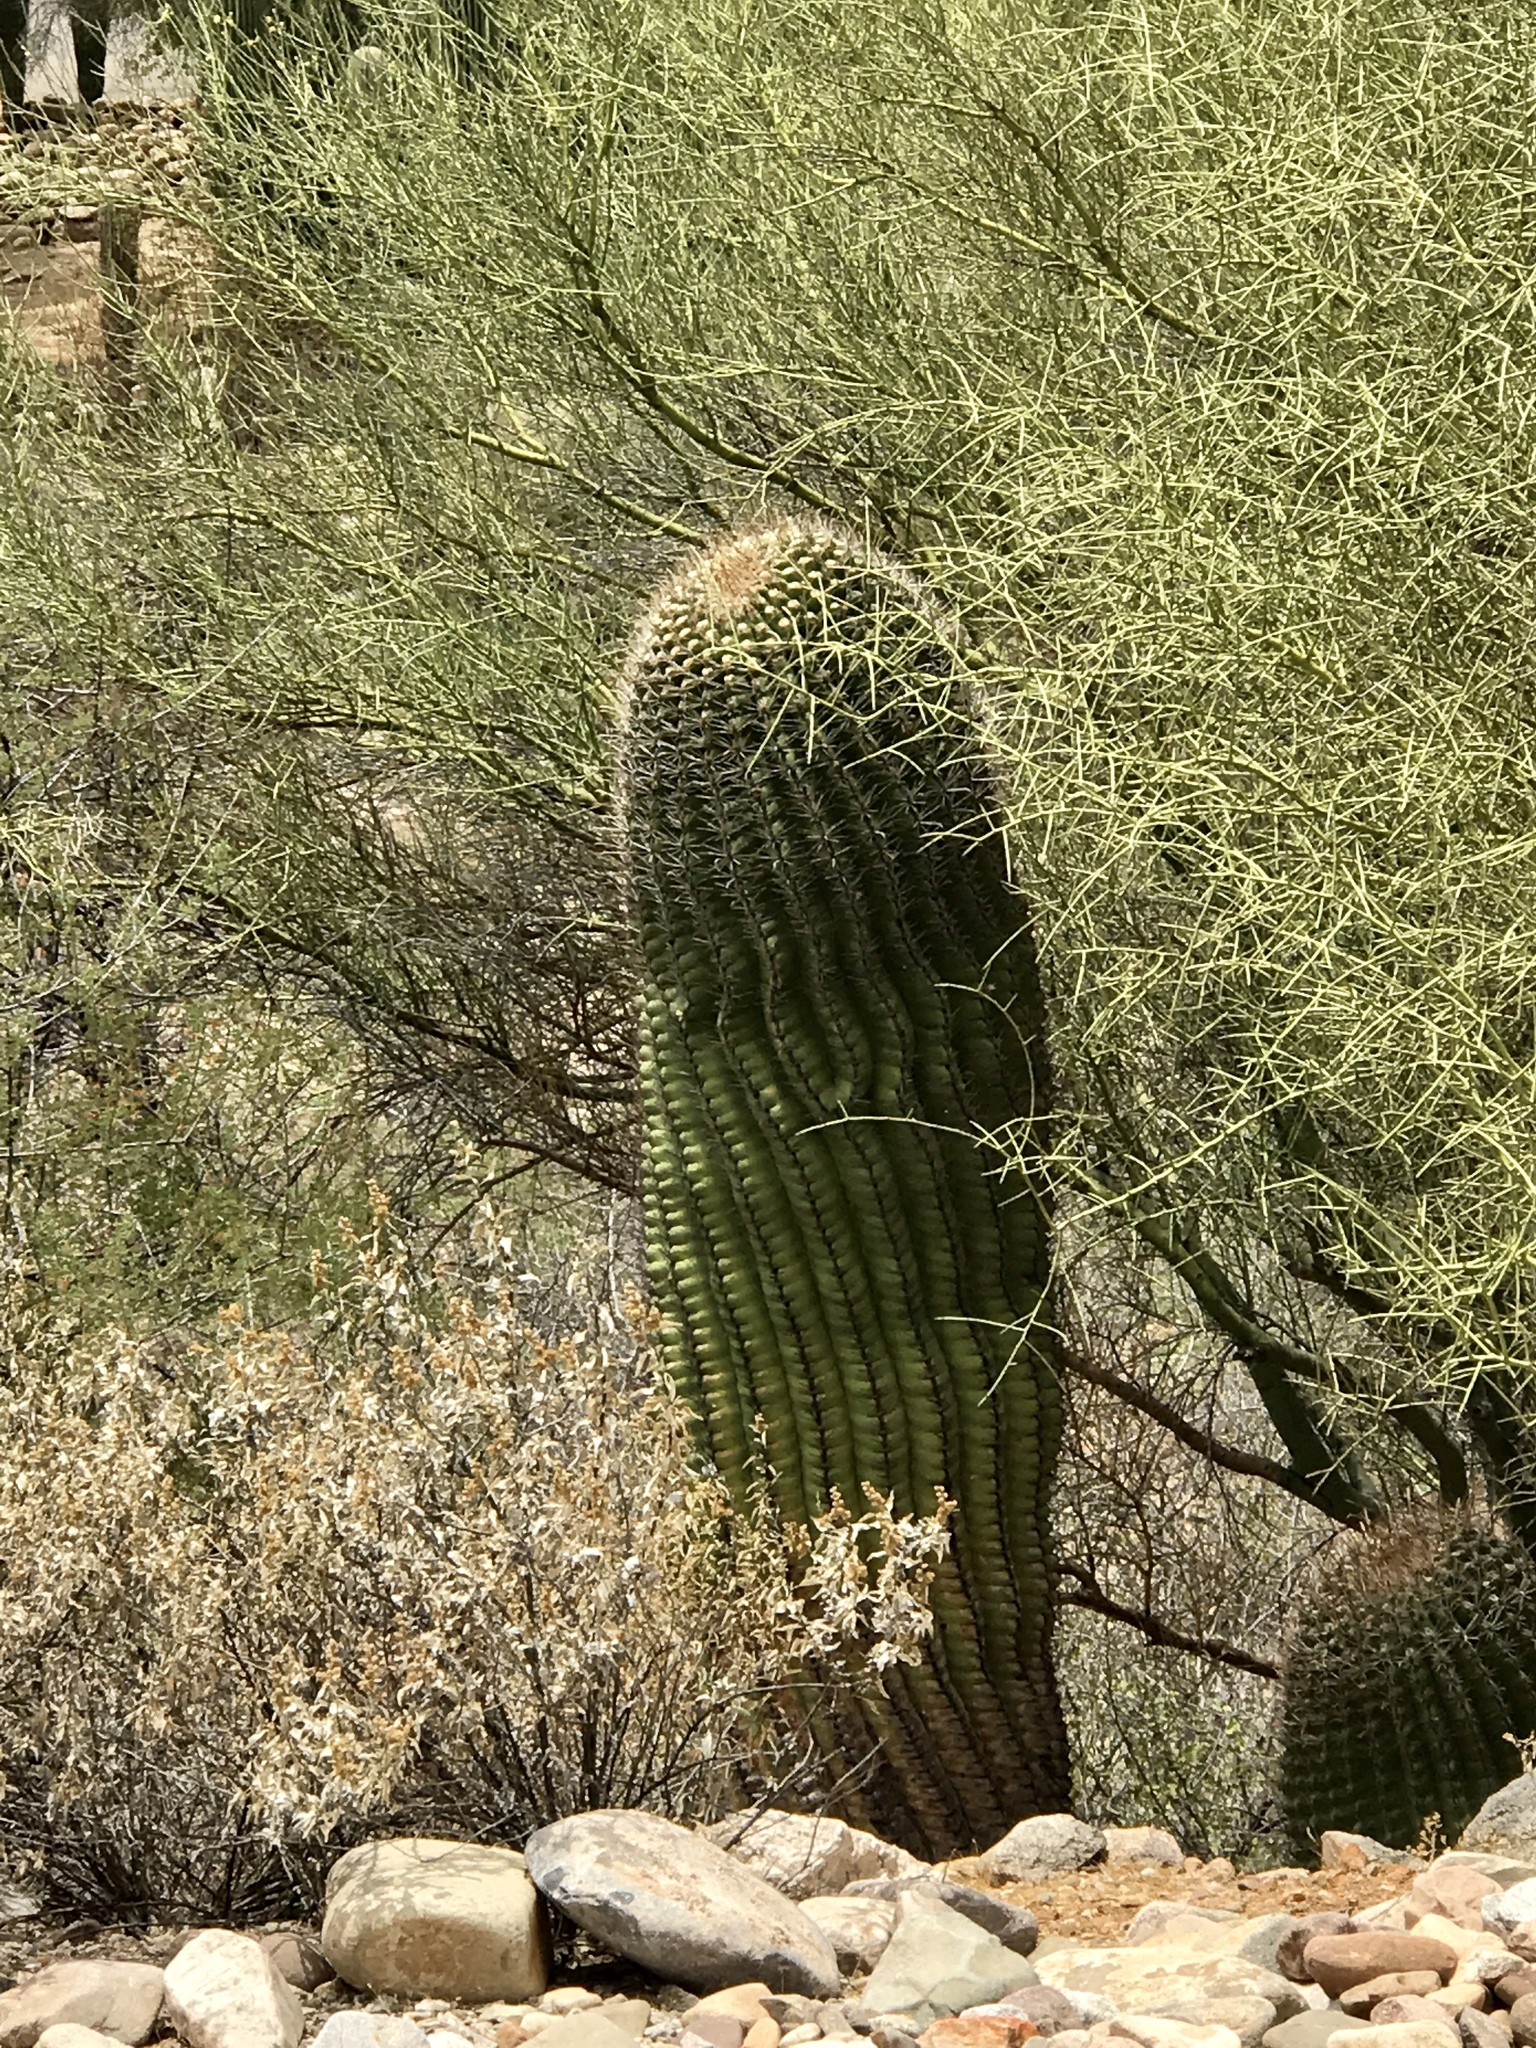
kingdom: Plantae
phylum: Tracheophyta
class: Magnoliopsida
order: Caryophyllales
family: Cactaceae
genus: Ferocactus
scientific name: Ferocactus wislizeni
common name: Candy barrel cactus
